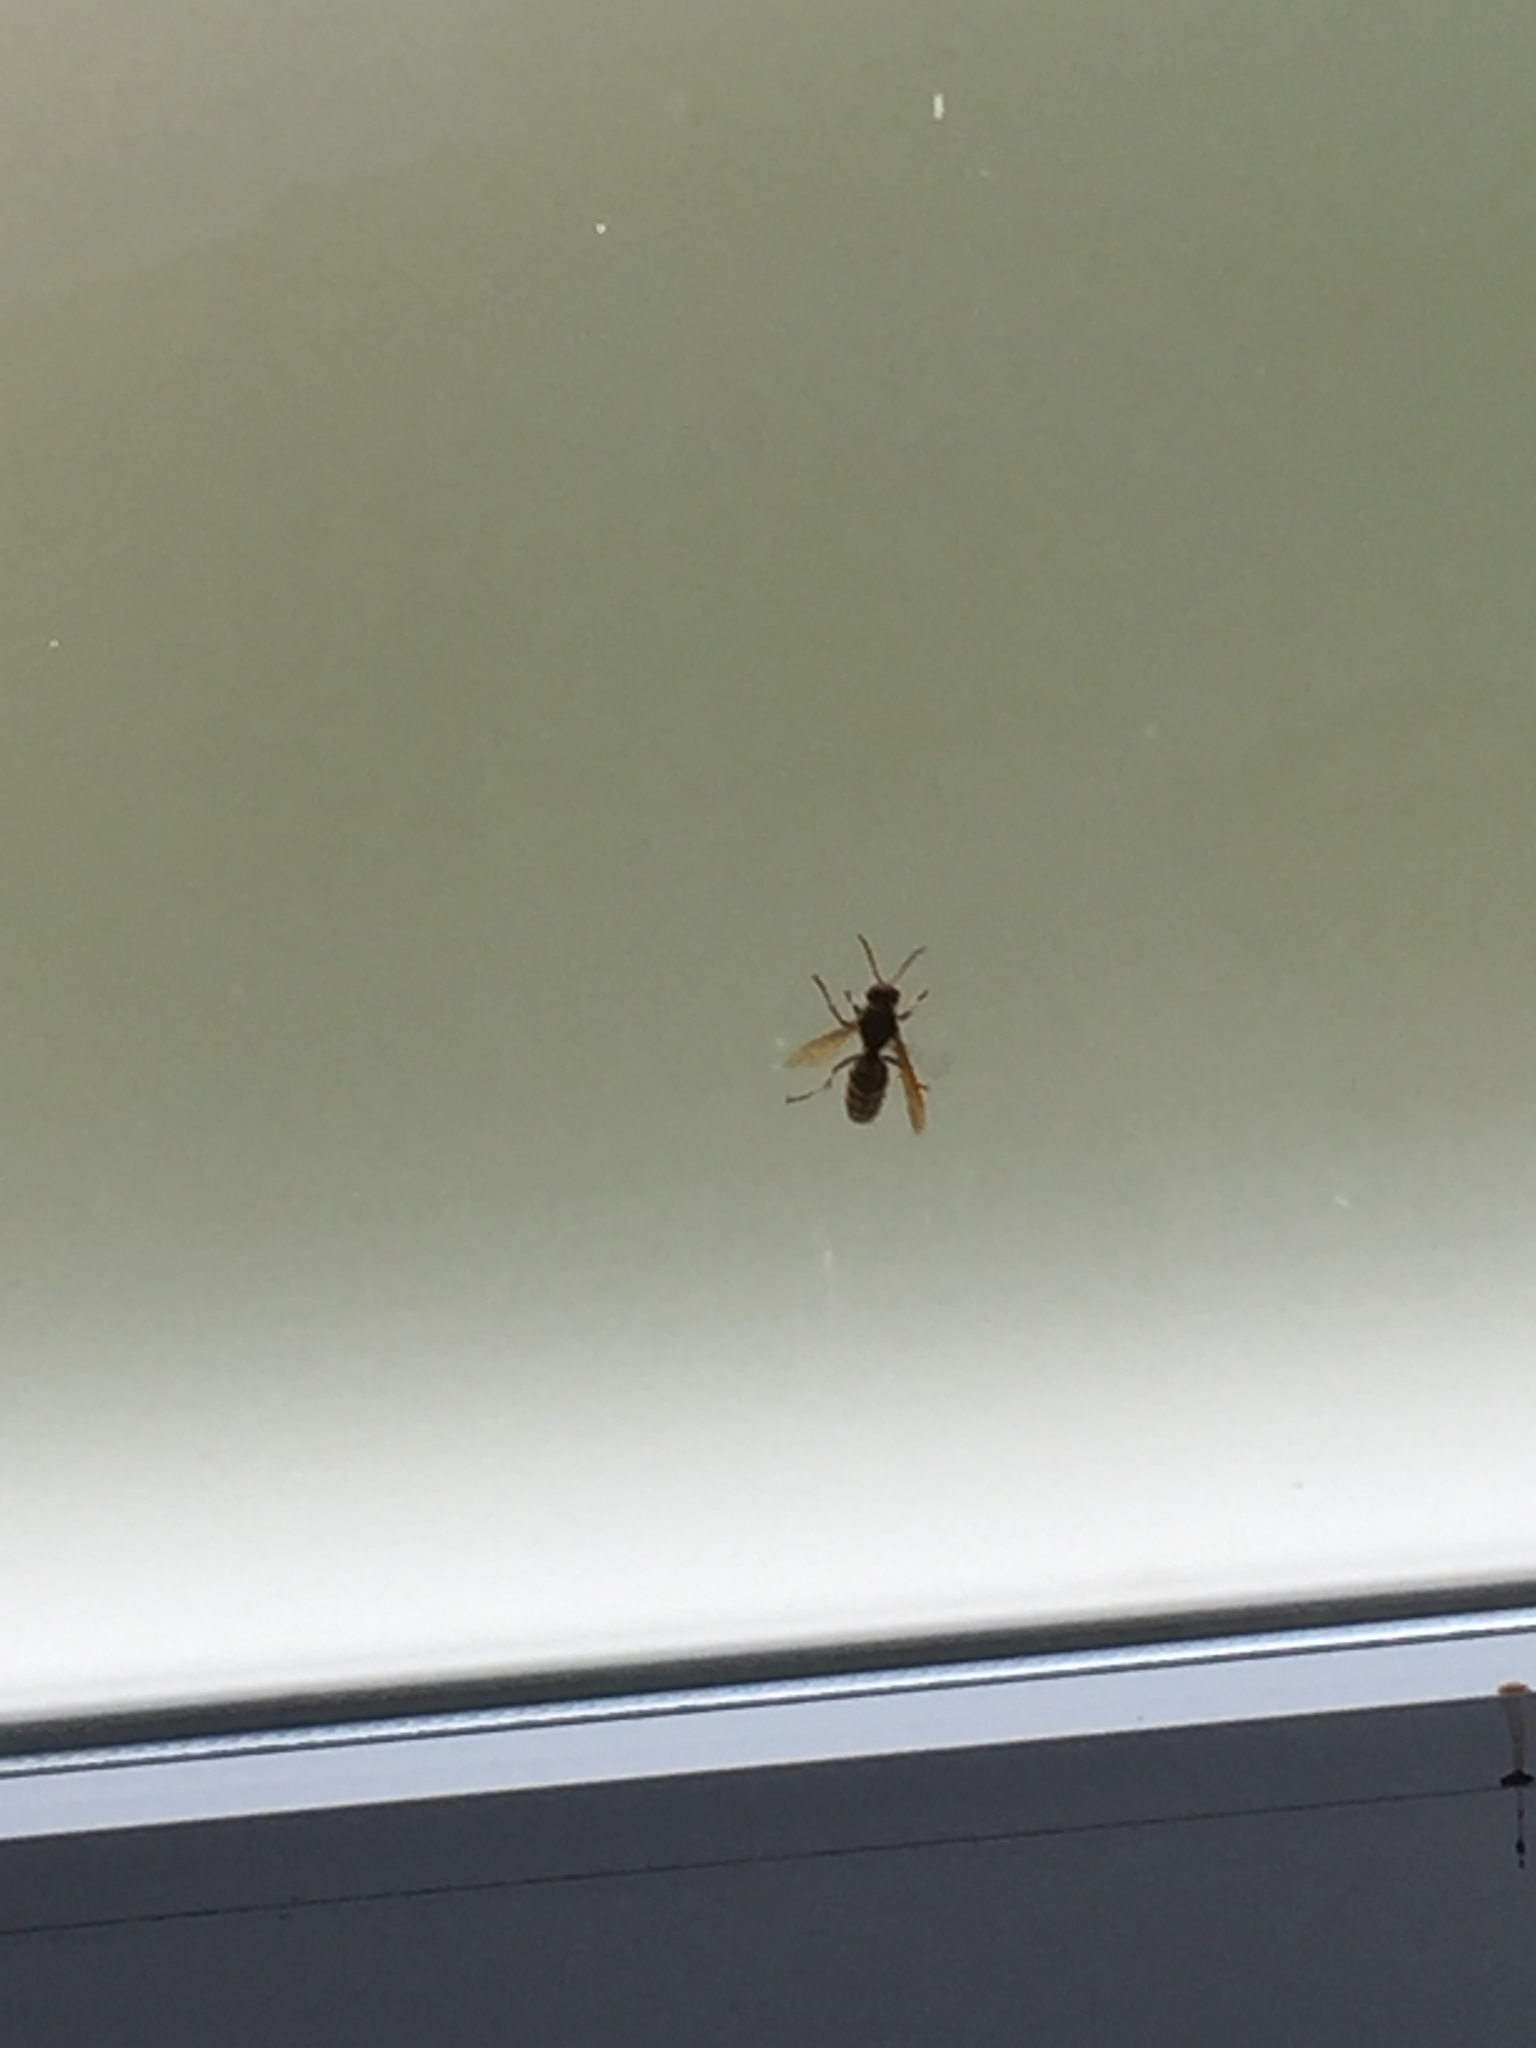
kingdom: Animalia
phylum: Arthropoda
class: Insecta
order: Hymenoptera
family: Vespidae
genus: Vespa
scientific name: Vespa crabro
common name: Hornet
